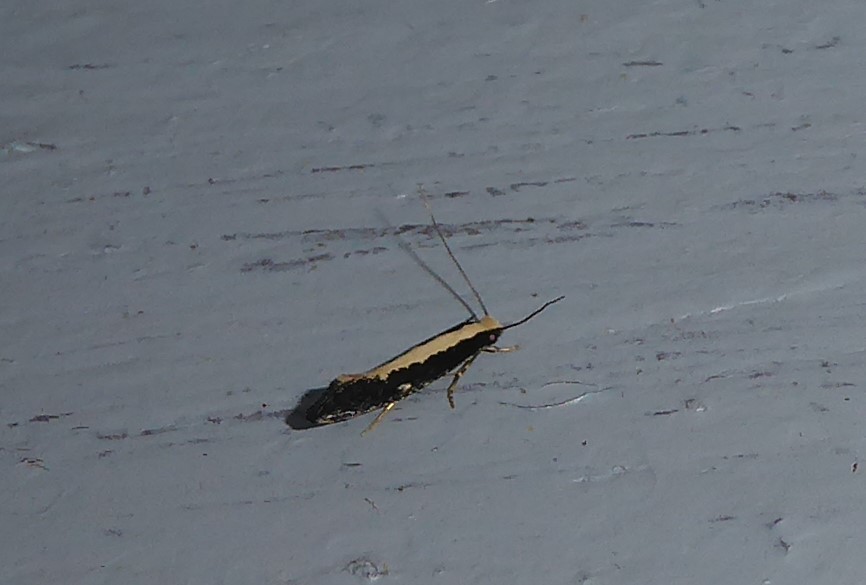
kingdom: Animalia
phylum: Arthropoda
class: Insecta
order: Lepidoptera
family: Tineidae
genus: Monopis
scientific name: Monopis ethelella
